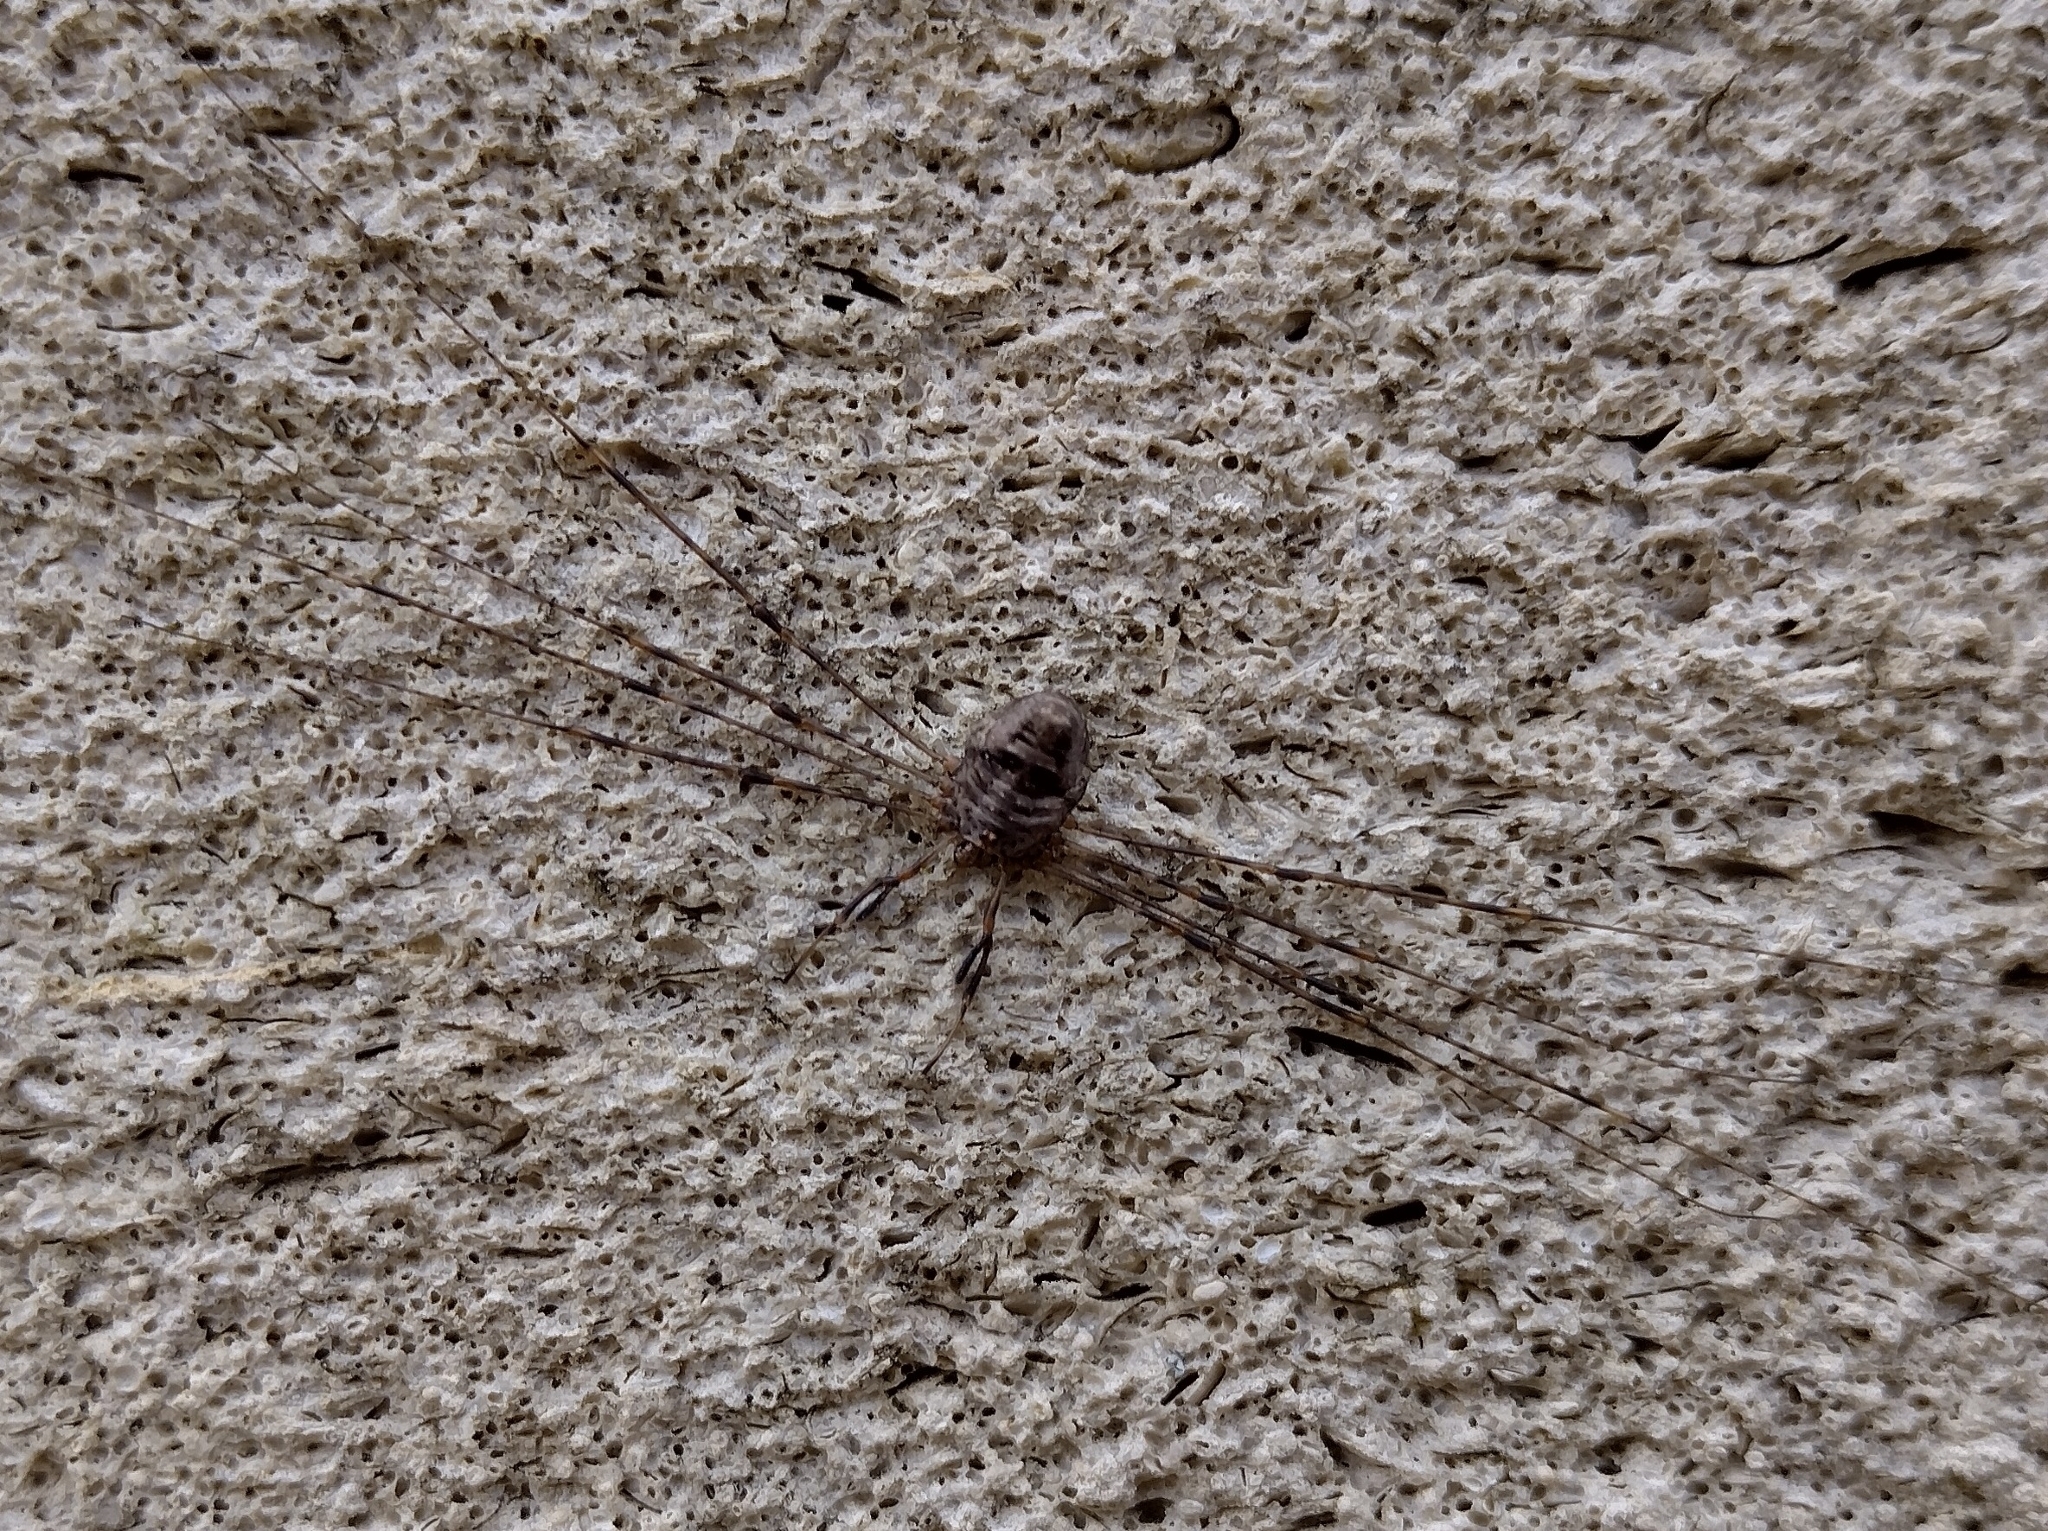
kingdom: Animalia
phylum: Arthropoda
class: Arachnida
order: Opiliones
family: Phalangiidae
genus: Dicranopalpus
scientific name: Dicranopalpus ramosus
